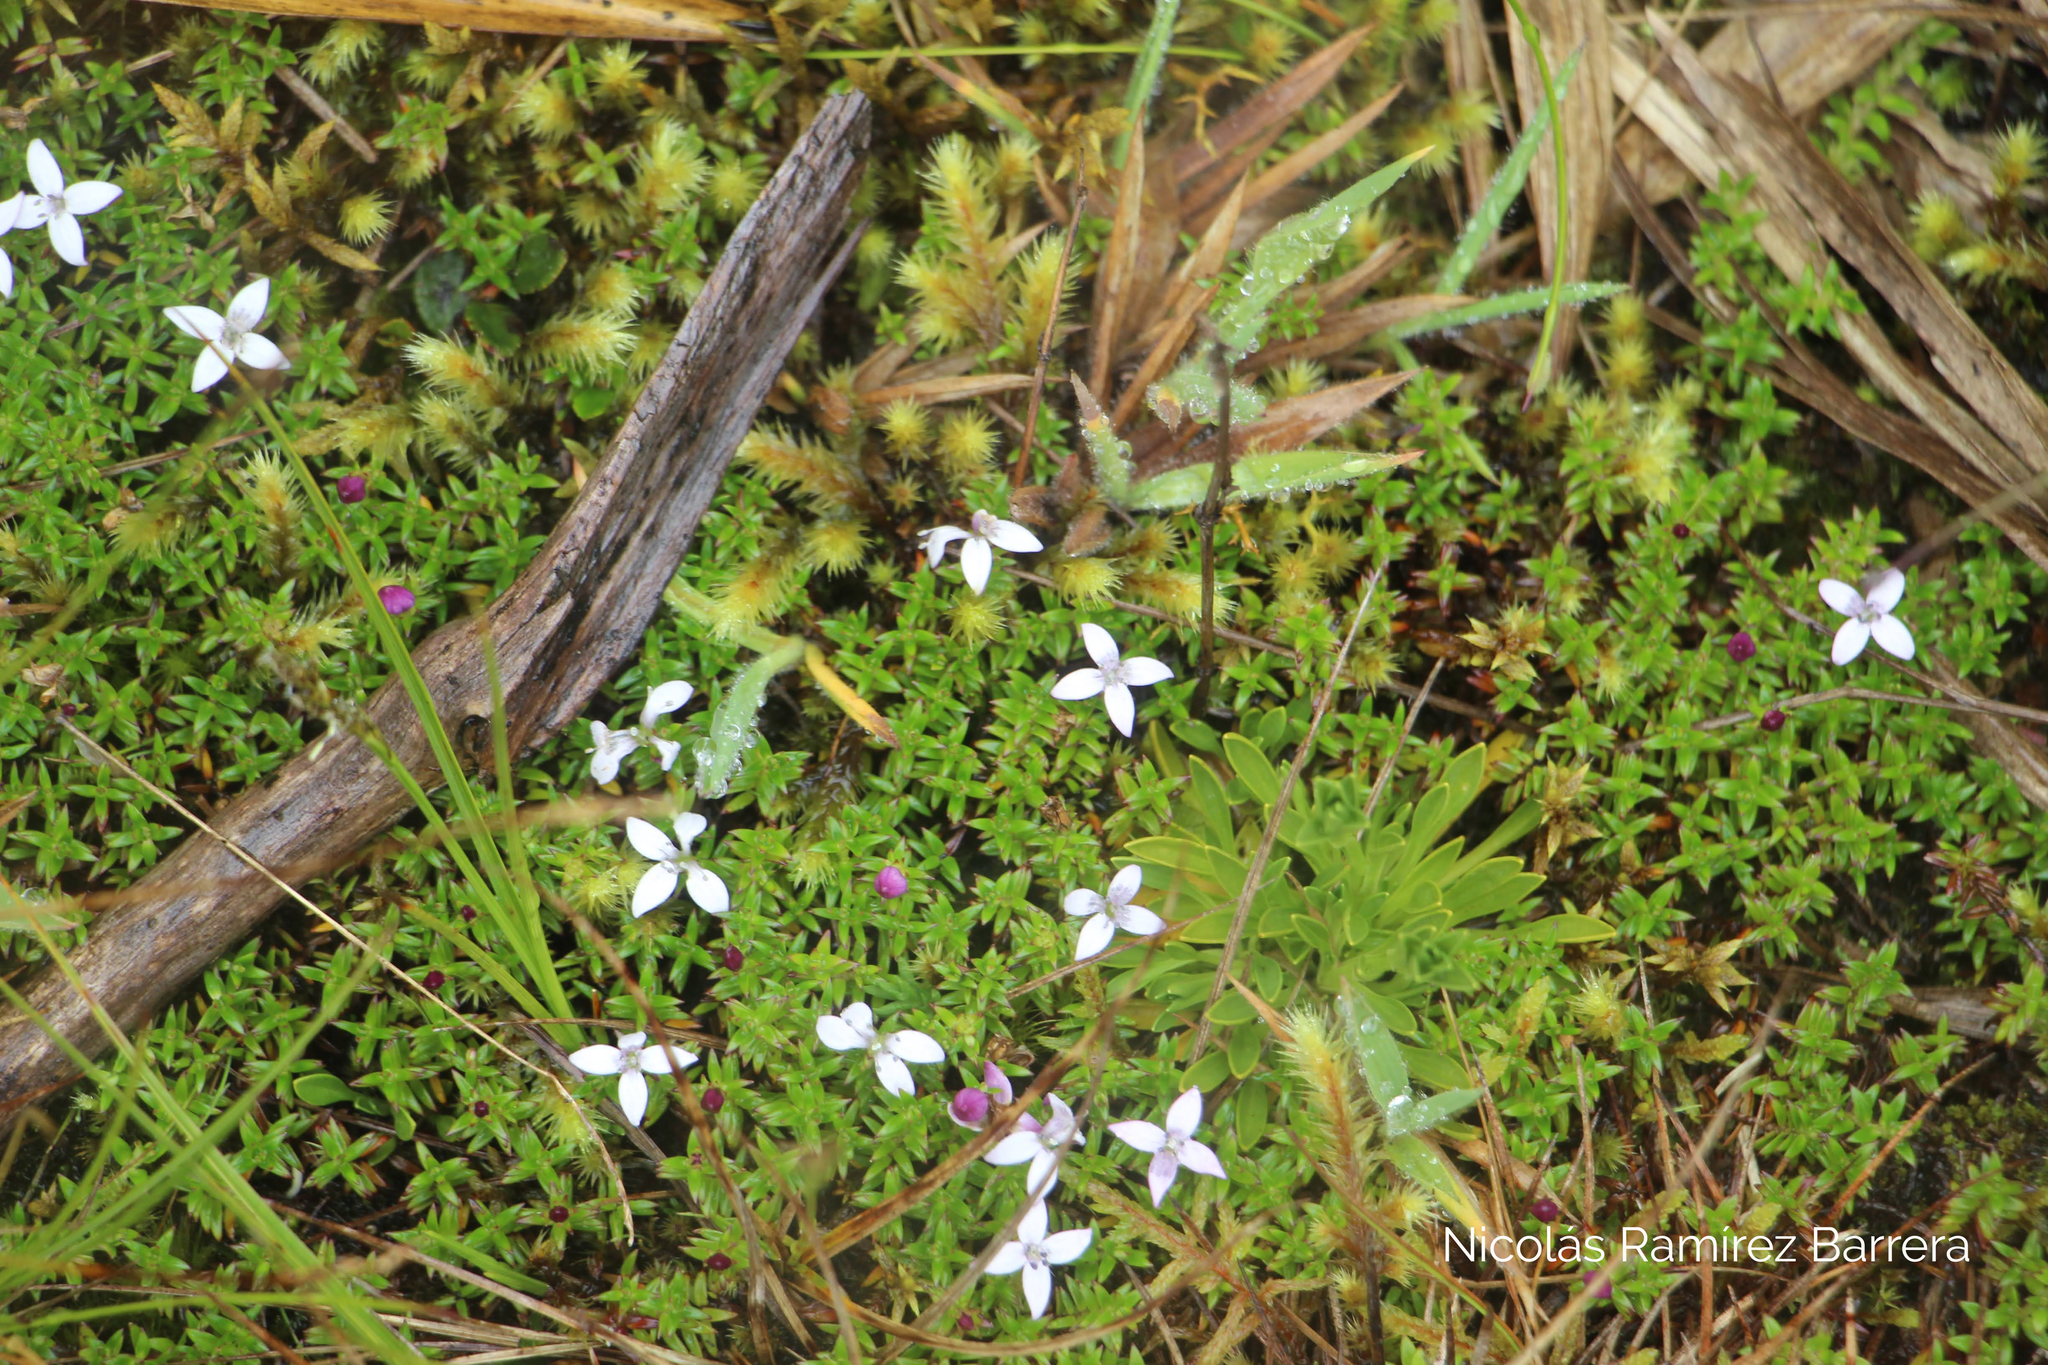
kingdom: Plantae
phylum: Tracheophyta
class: Magnoliopsida
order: Gentianales
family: Rubiaceae
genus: Arcytophyllum
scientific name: Arcytophyllum muticum
